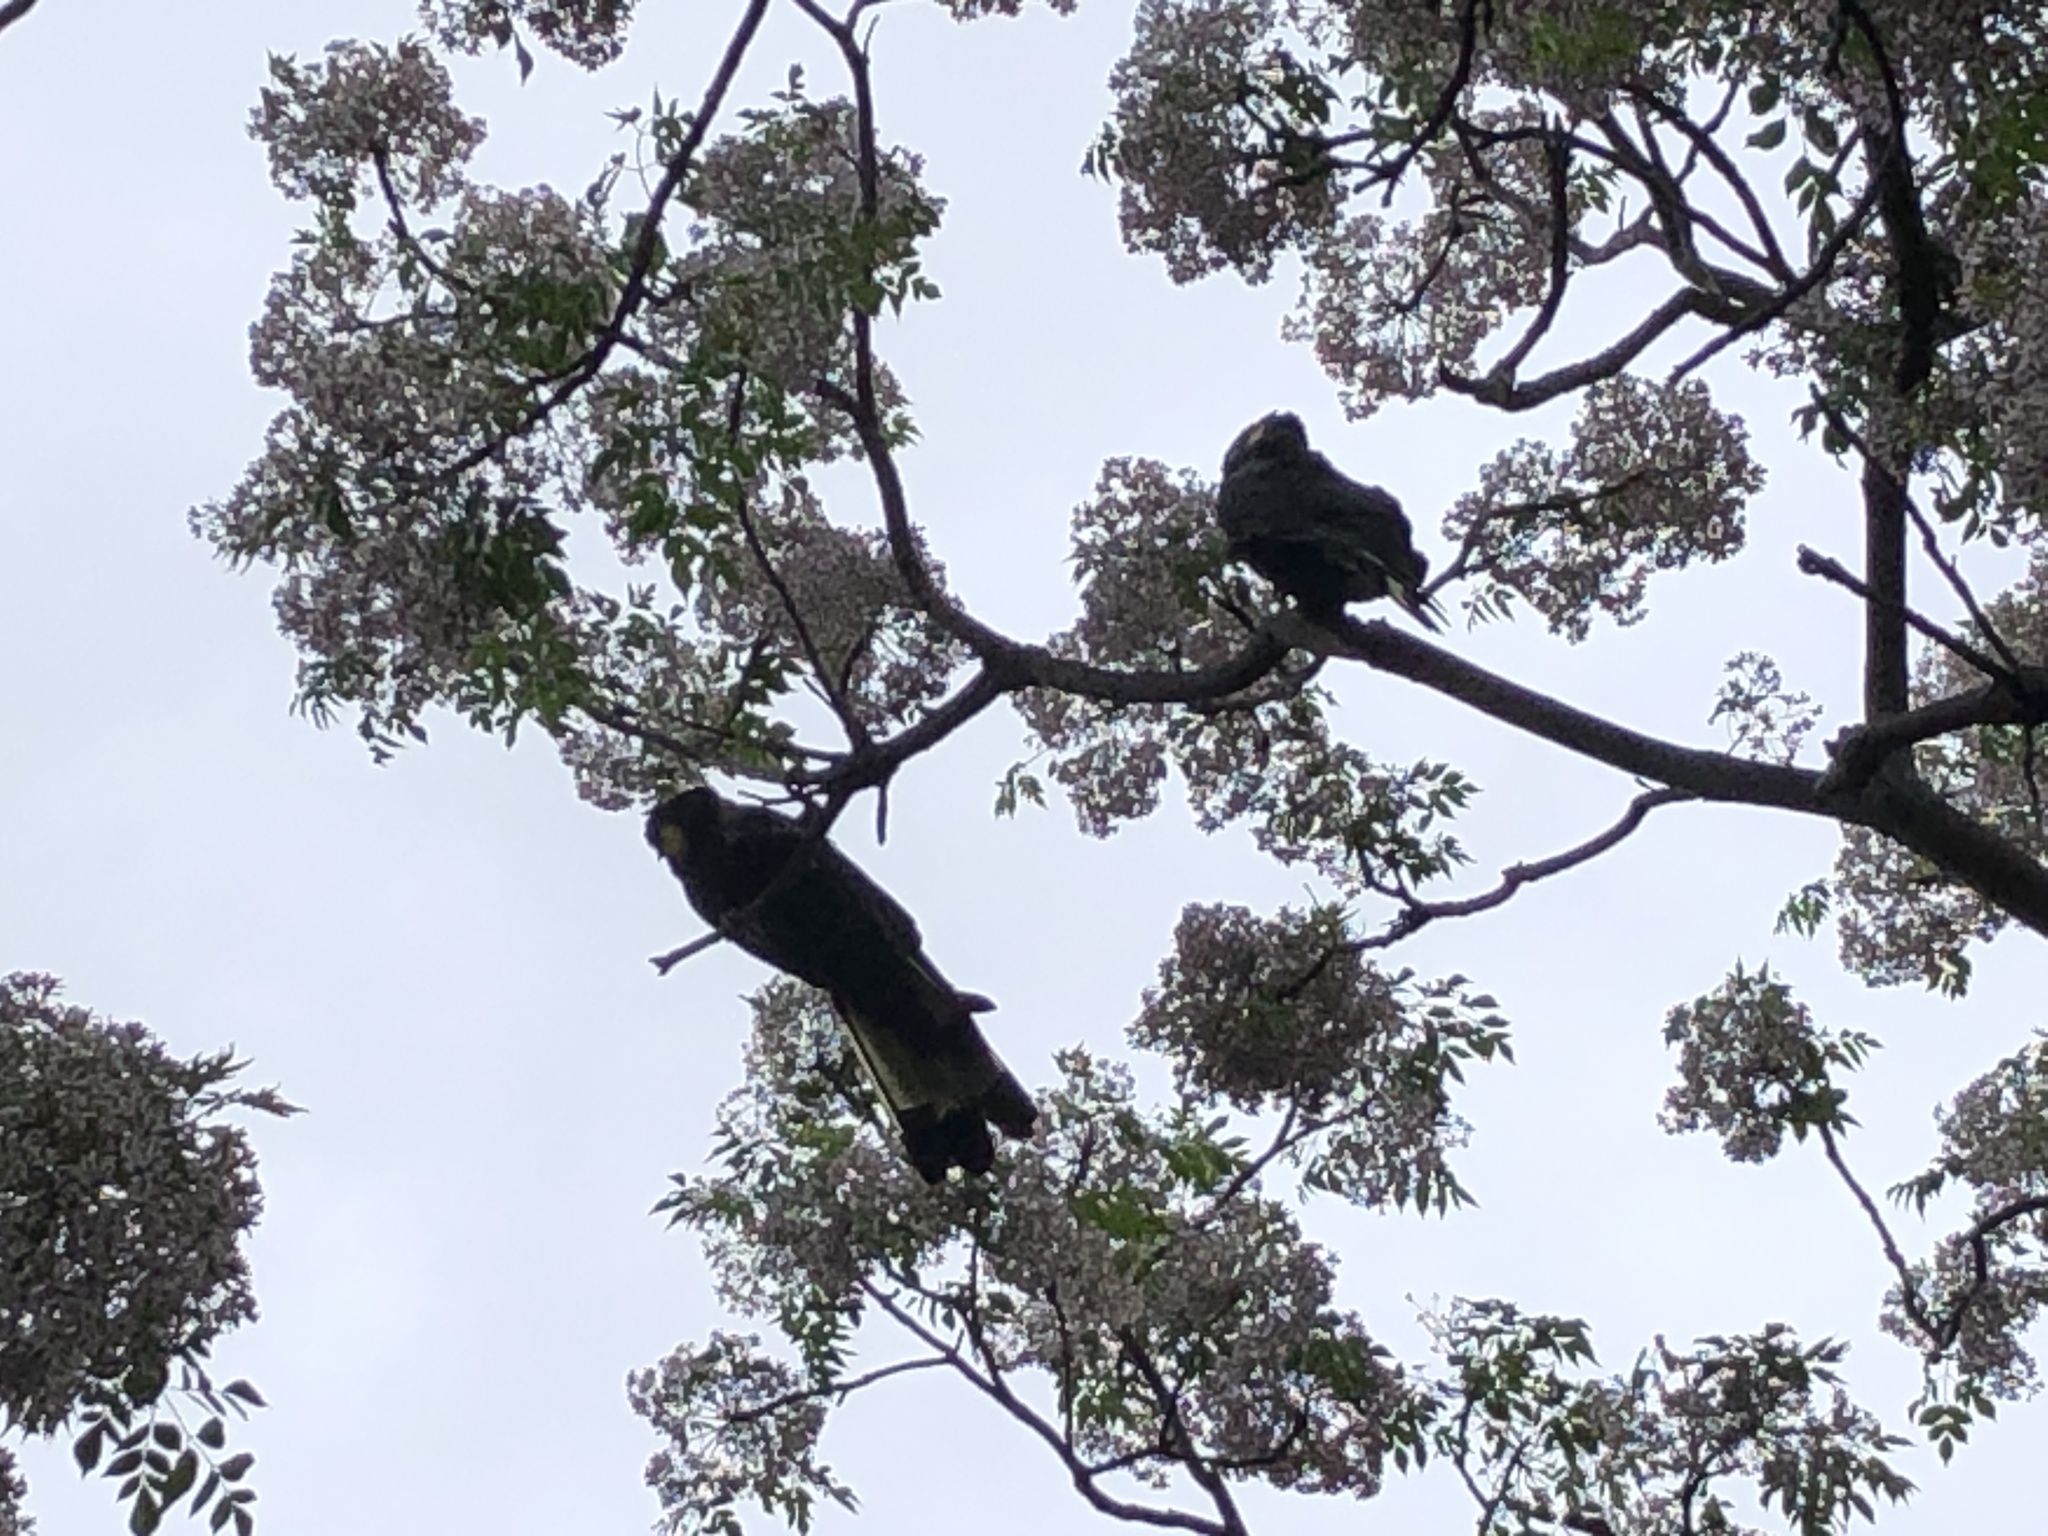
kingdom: Animalia
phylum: Chordata
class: Aves
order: Psittaciformes
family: Cacatuidae
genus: Zanda
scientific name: Zanda funerea
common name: Yellow-tailed black-cockatoo
